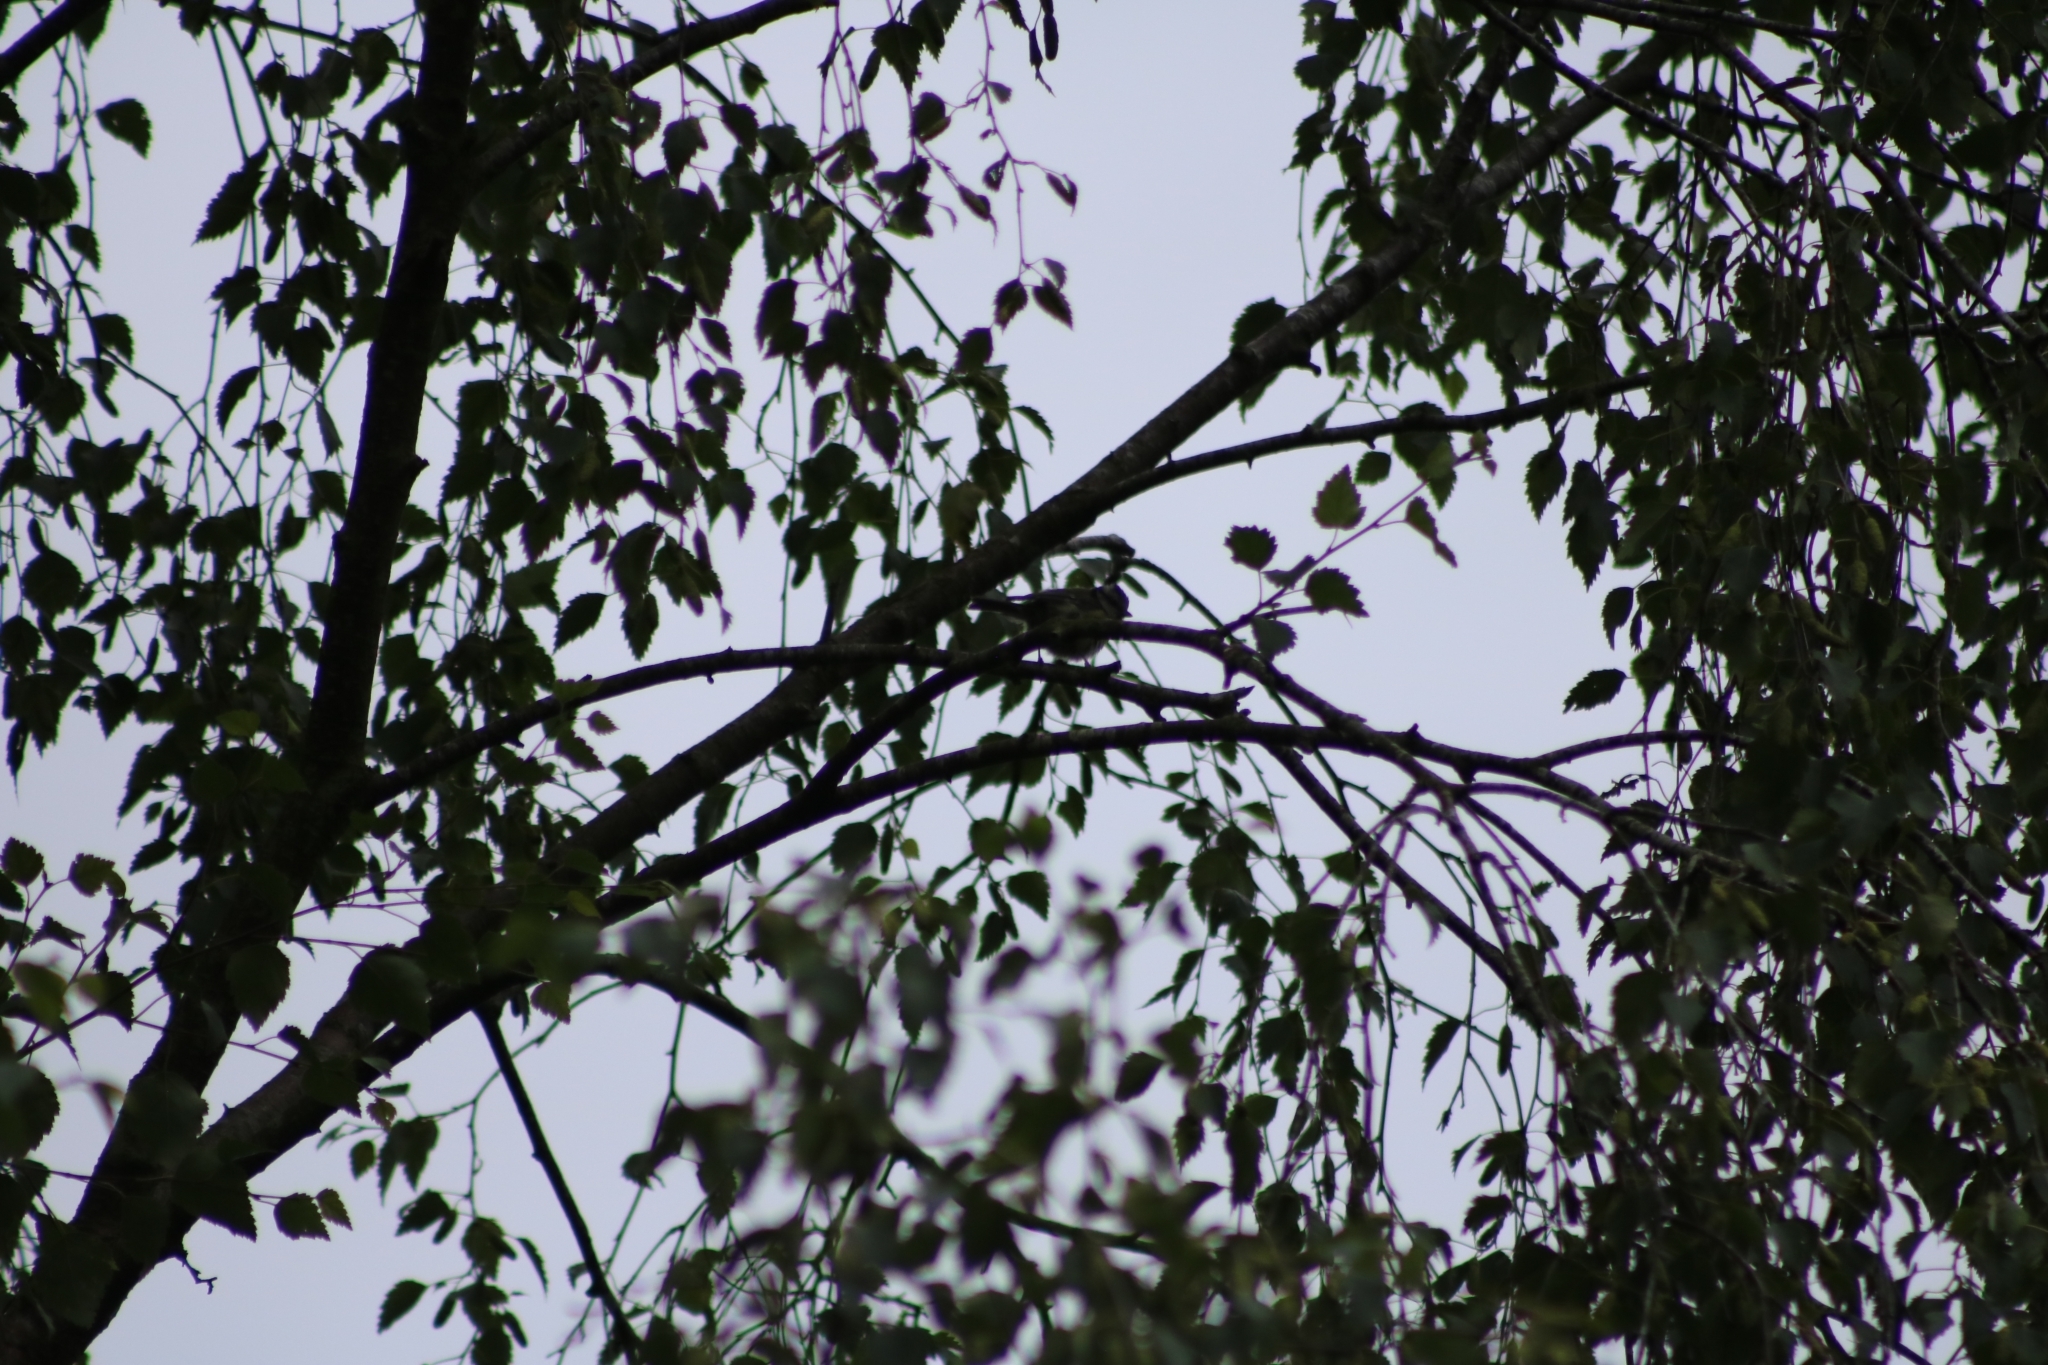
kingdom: Animalia
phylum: Chordata
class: Aves
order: Passeriformes
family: Paridae
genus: Cyanistes
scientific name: Cyanistes caeruleus
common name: Eurasian blue tit
